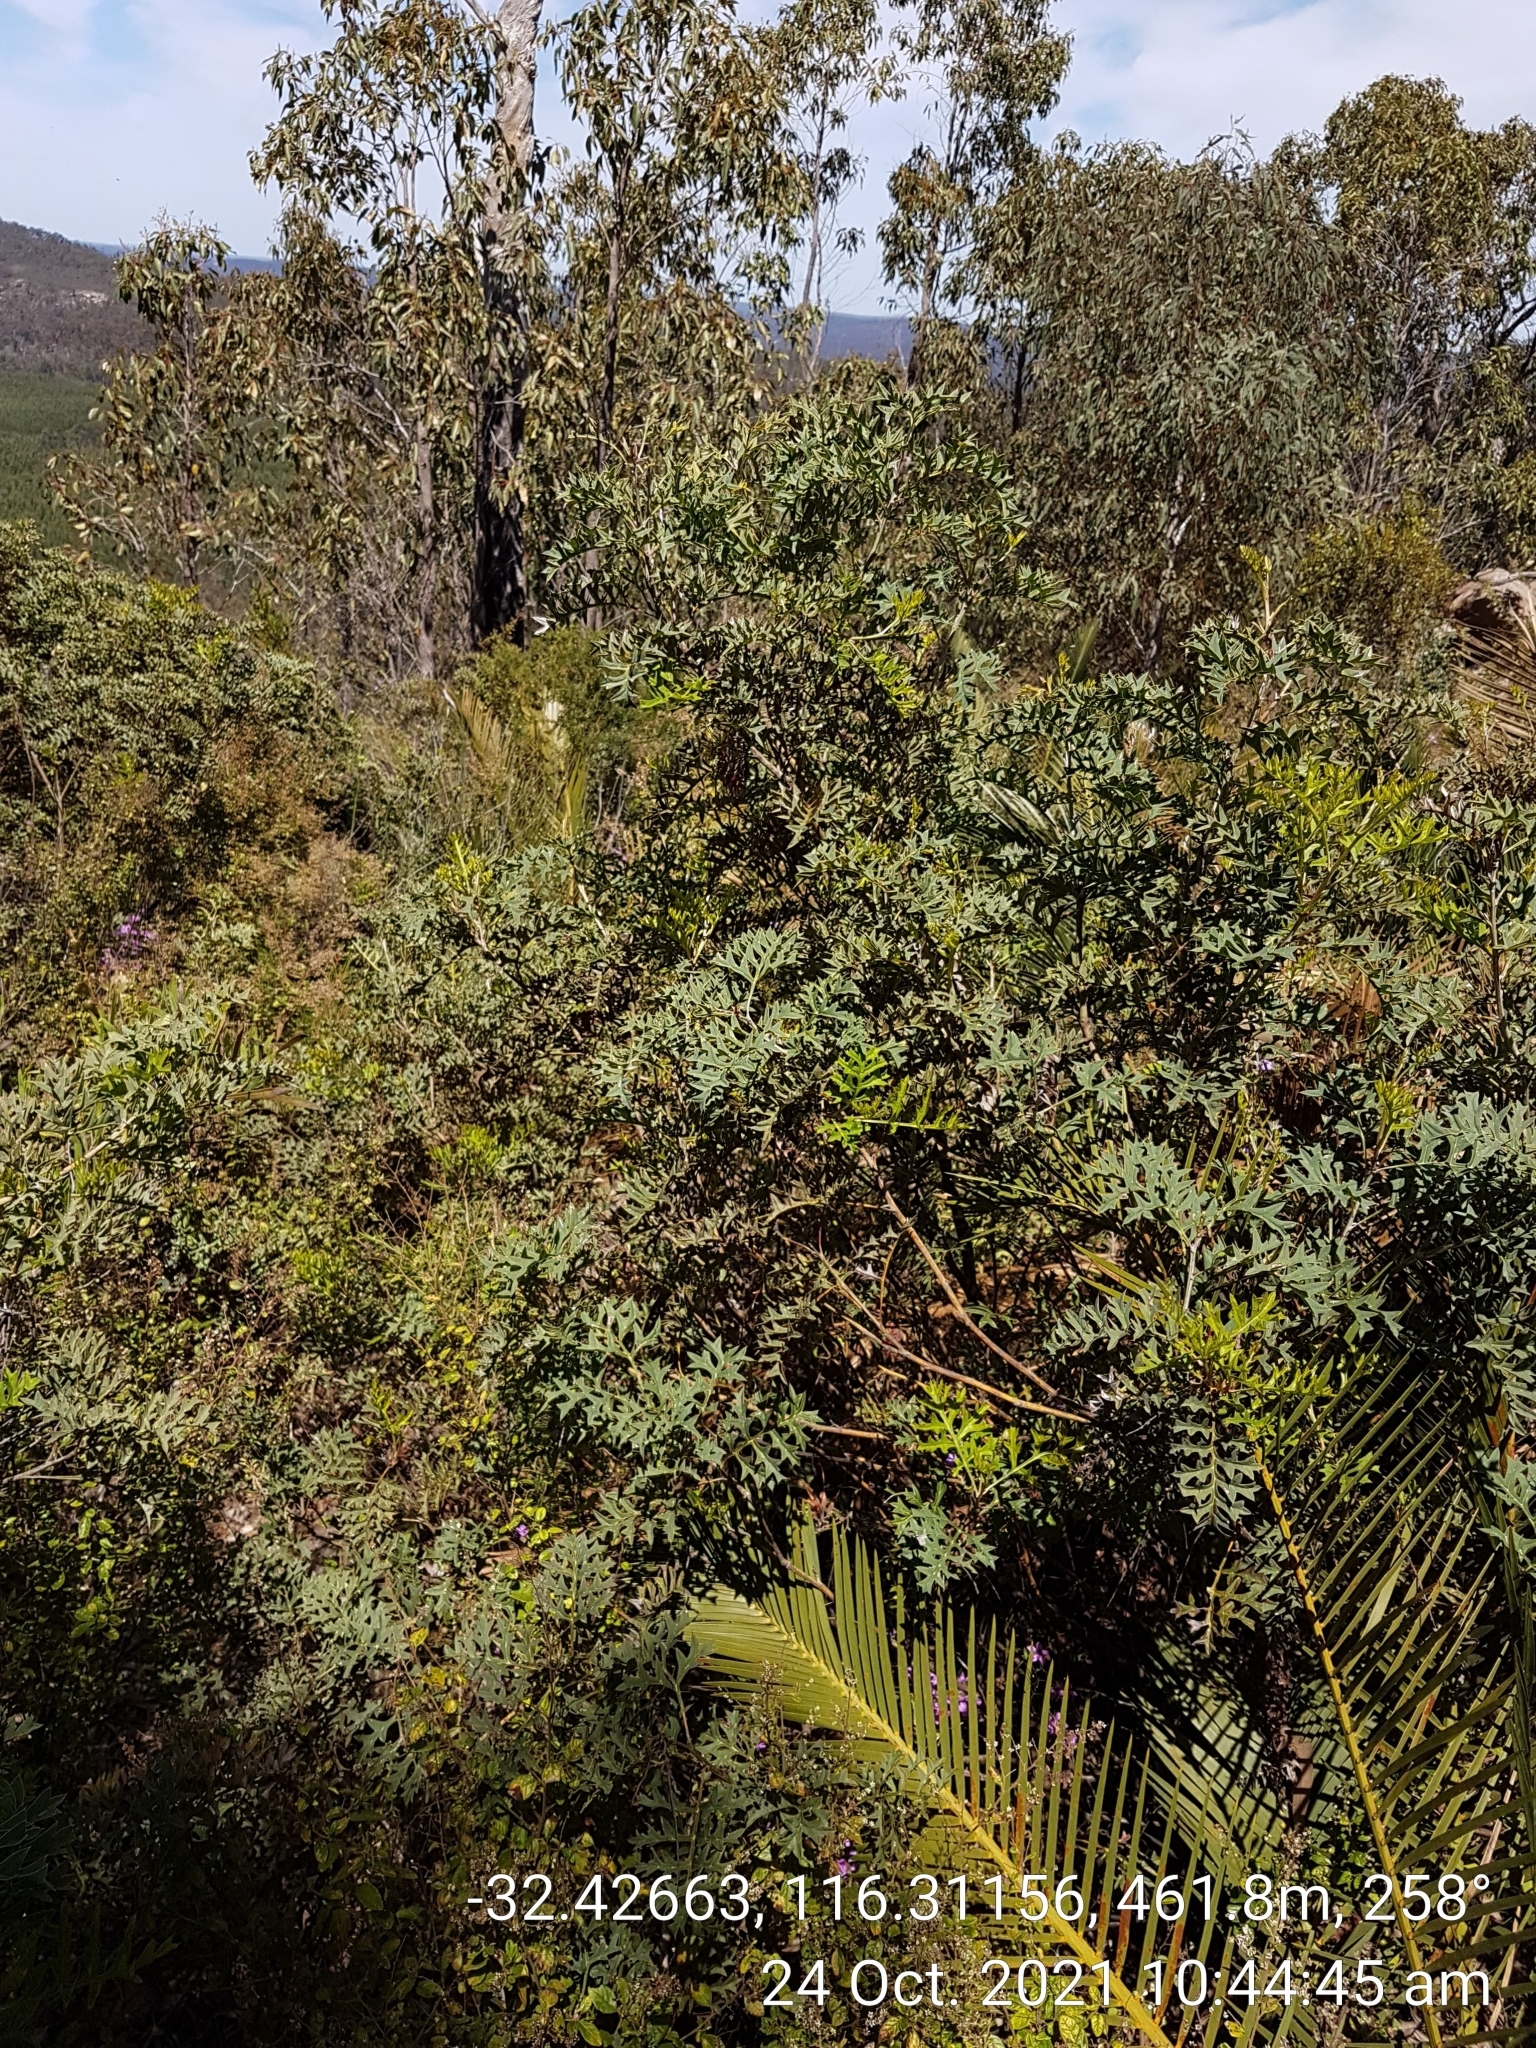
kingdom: Plantae
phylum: Tracheophyta
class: Magnoliopsida
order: Proteales
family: Proteaceae
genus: Grevillea
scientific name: Grevillea bipinnatifida
